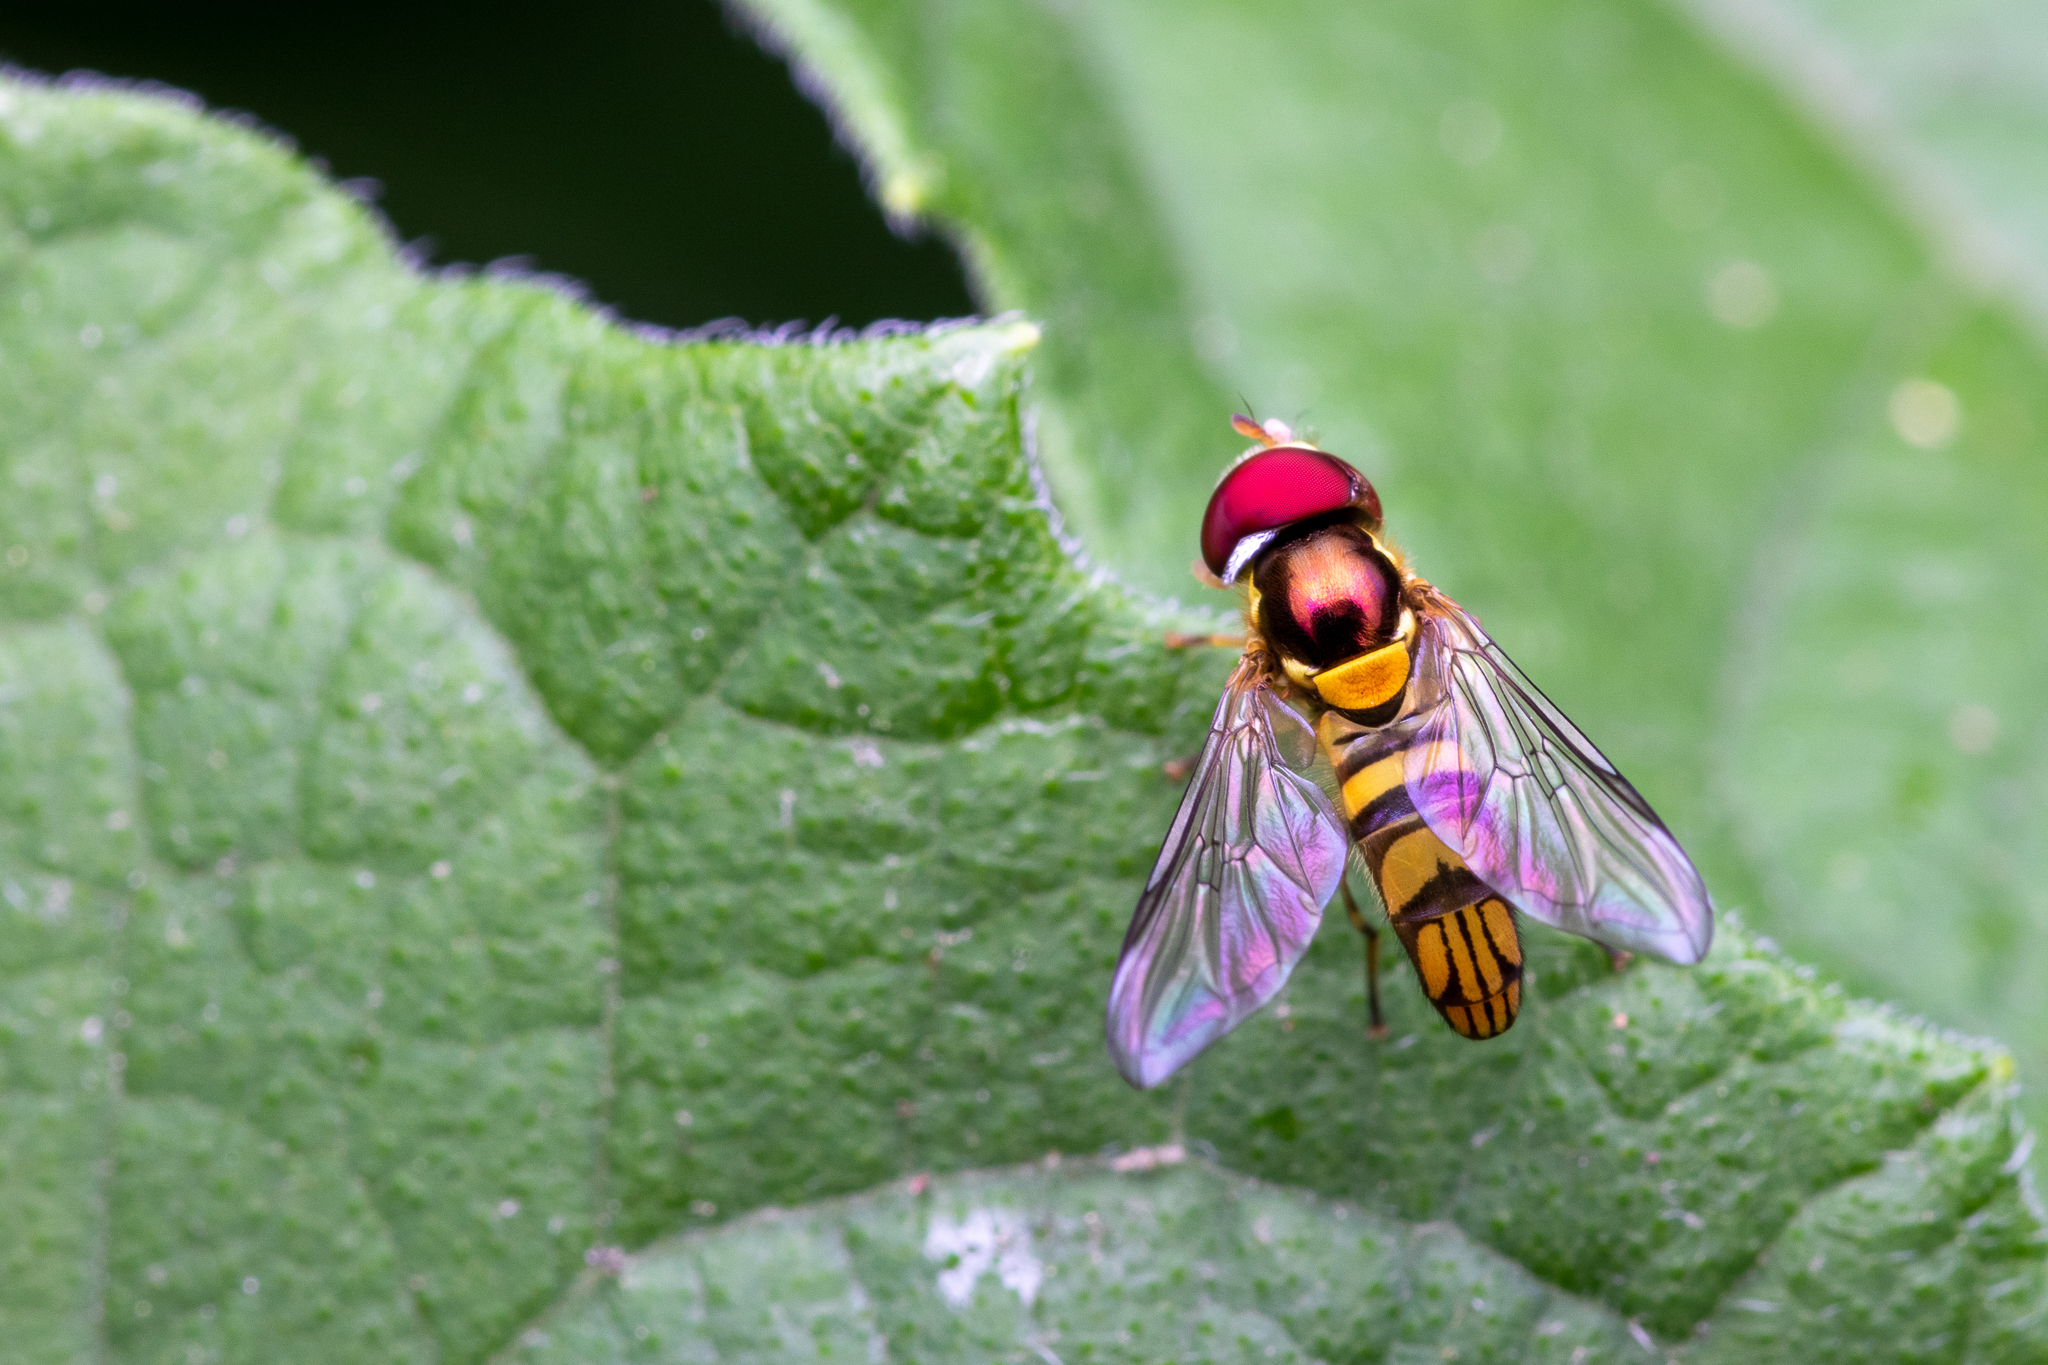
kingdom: Animalia
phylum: Arthropoda
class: Insecta
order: Diptera
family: Syrphidae
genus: Allograpta
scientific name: Allograpta obliqua
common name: Common oblique syrphid
